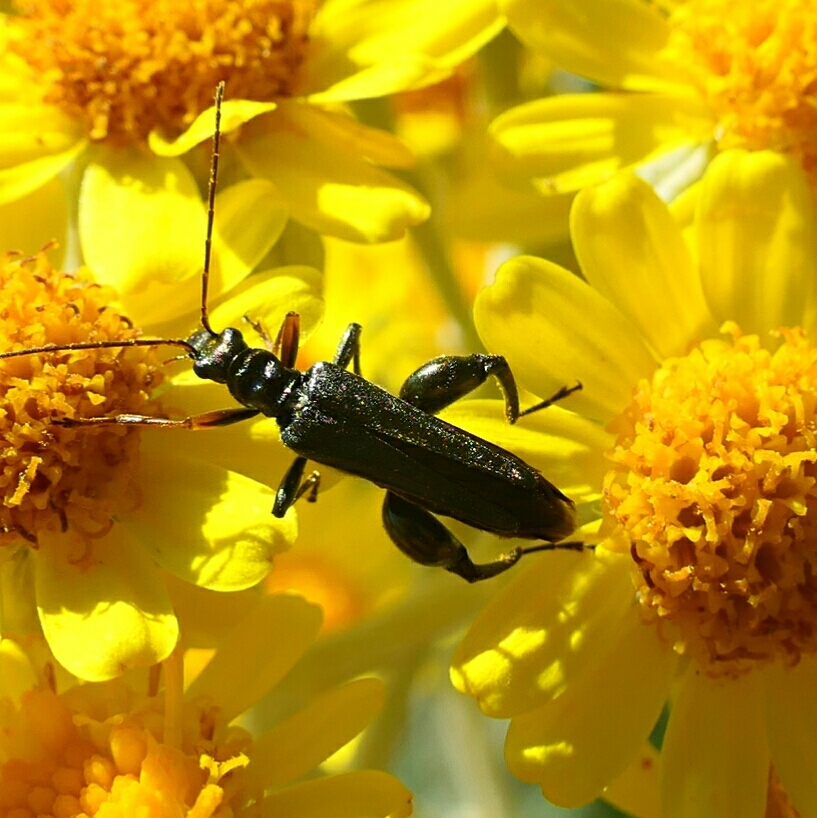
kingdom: Animalia
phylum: Arthropoda
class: Insecta
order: Coleoptera
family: Oedemeridae
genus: Oedemera
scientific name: Oedemera flavipes
